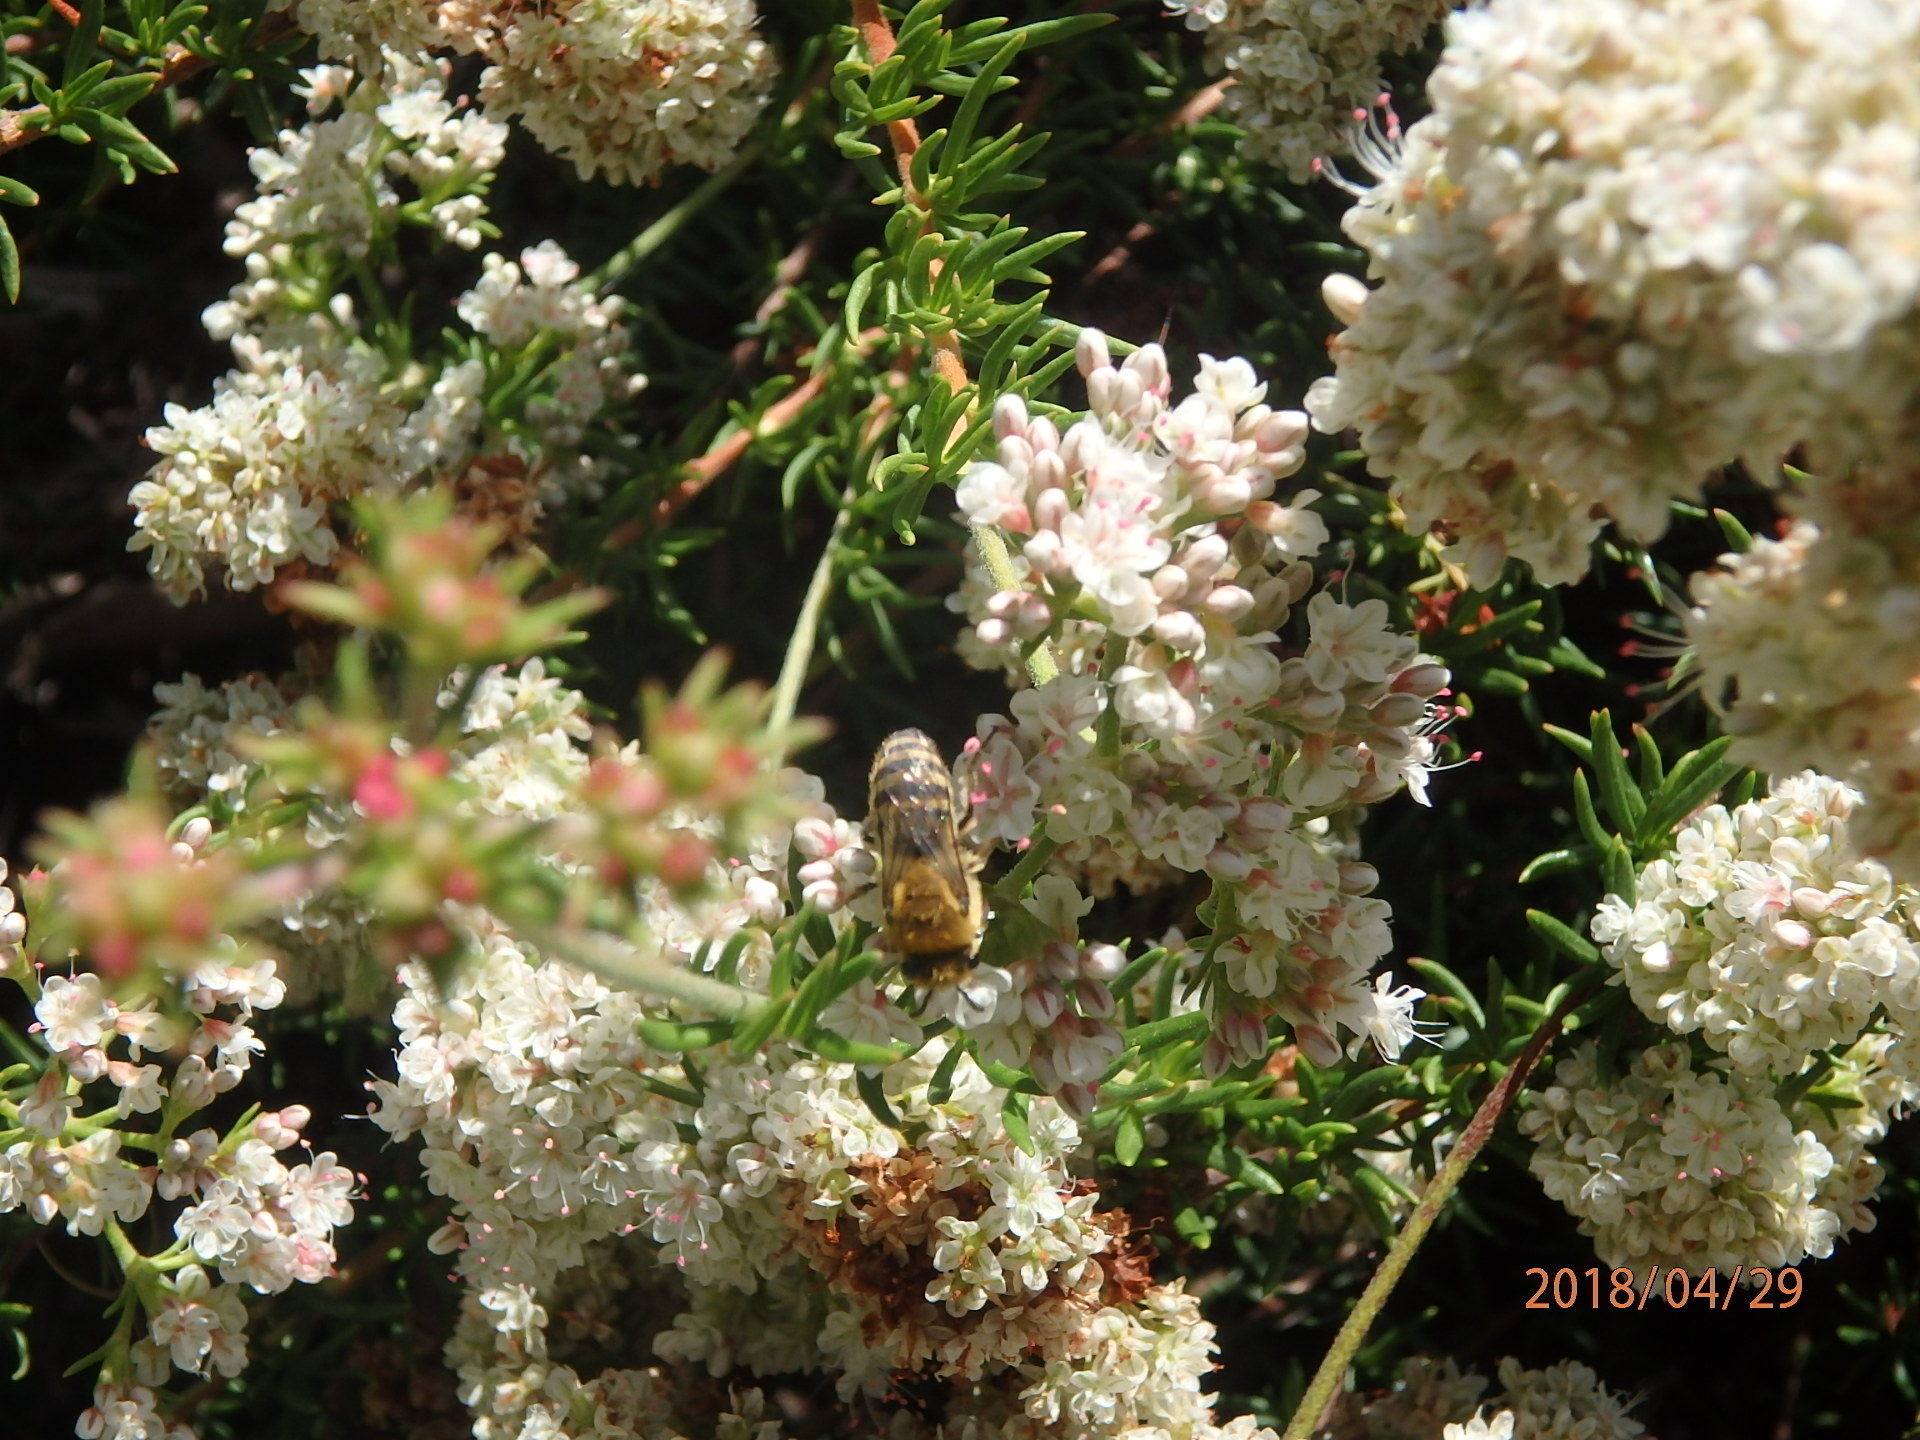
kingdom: Animalia
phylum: Arthropoda
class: Insecta
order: Hymenoptera
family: Colletidae
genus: Colletes
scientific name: Colletes slevini
